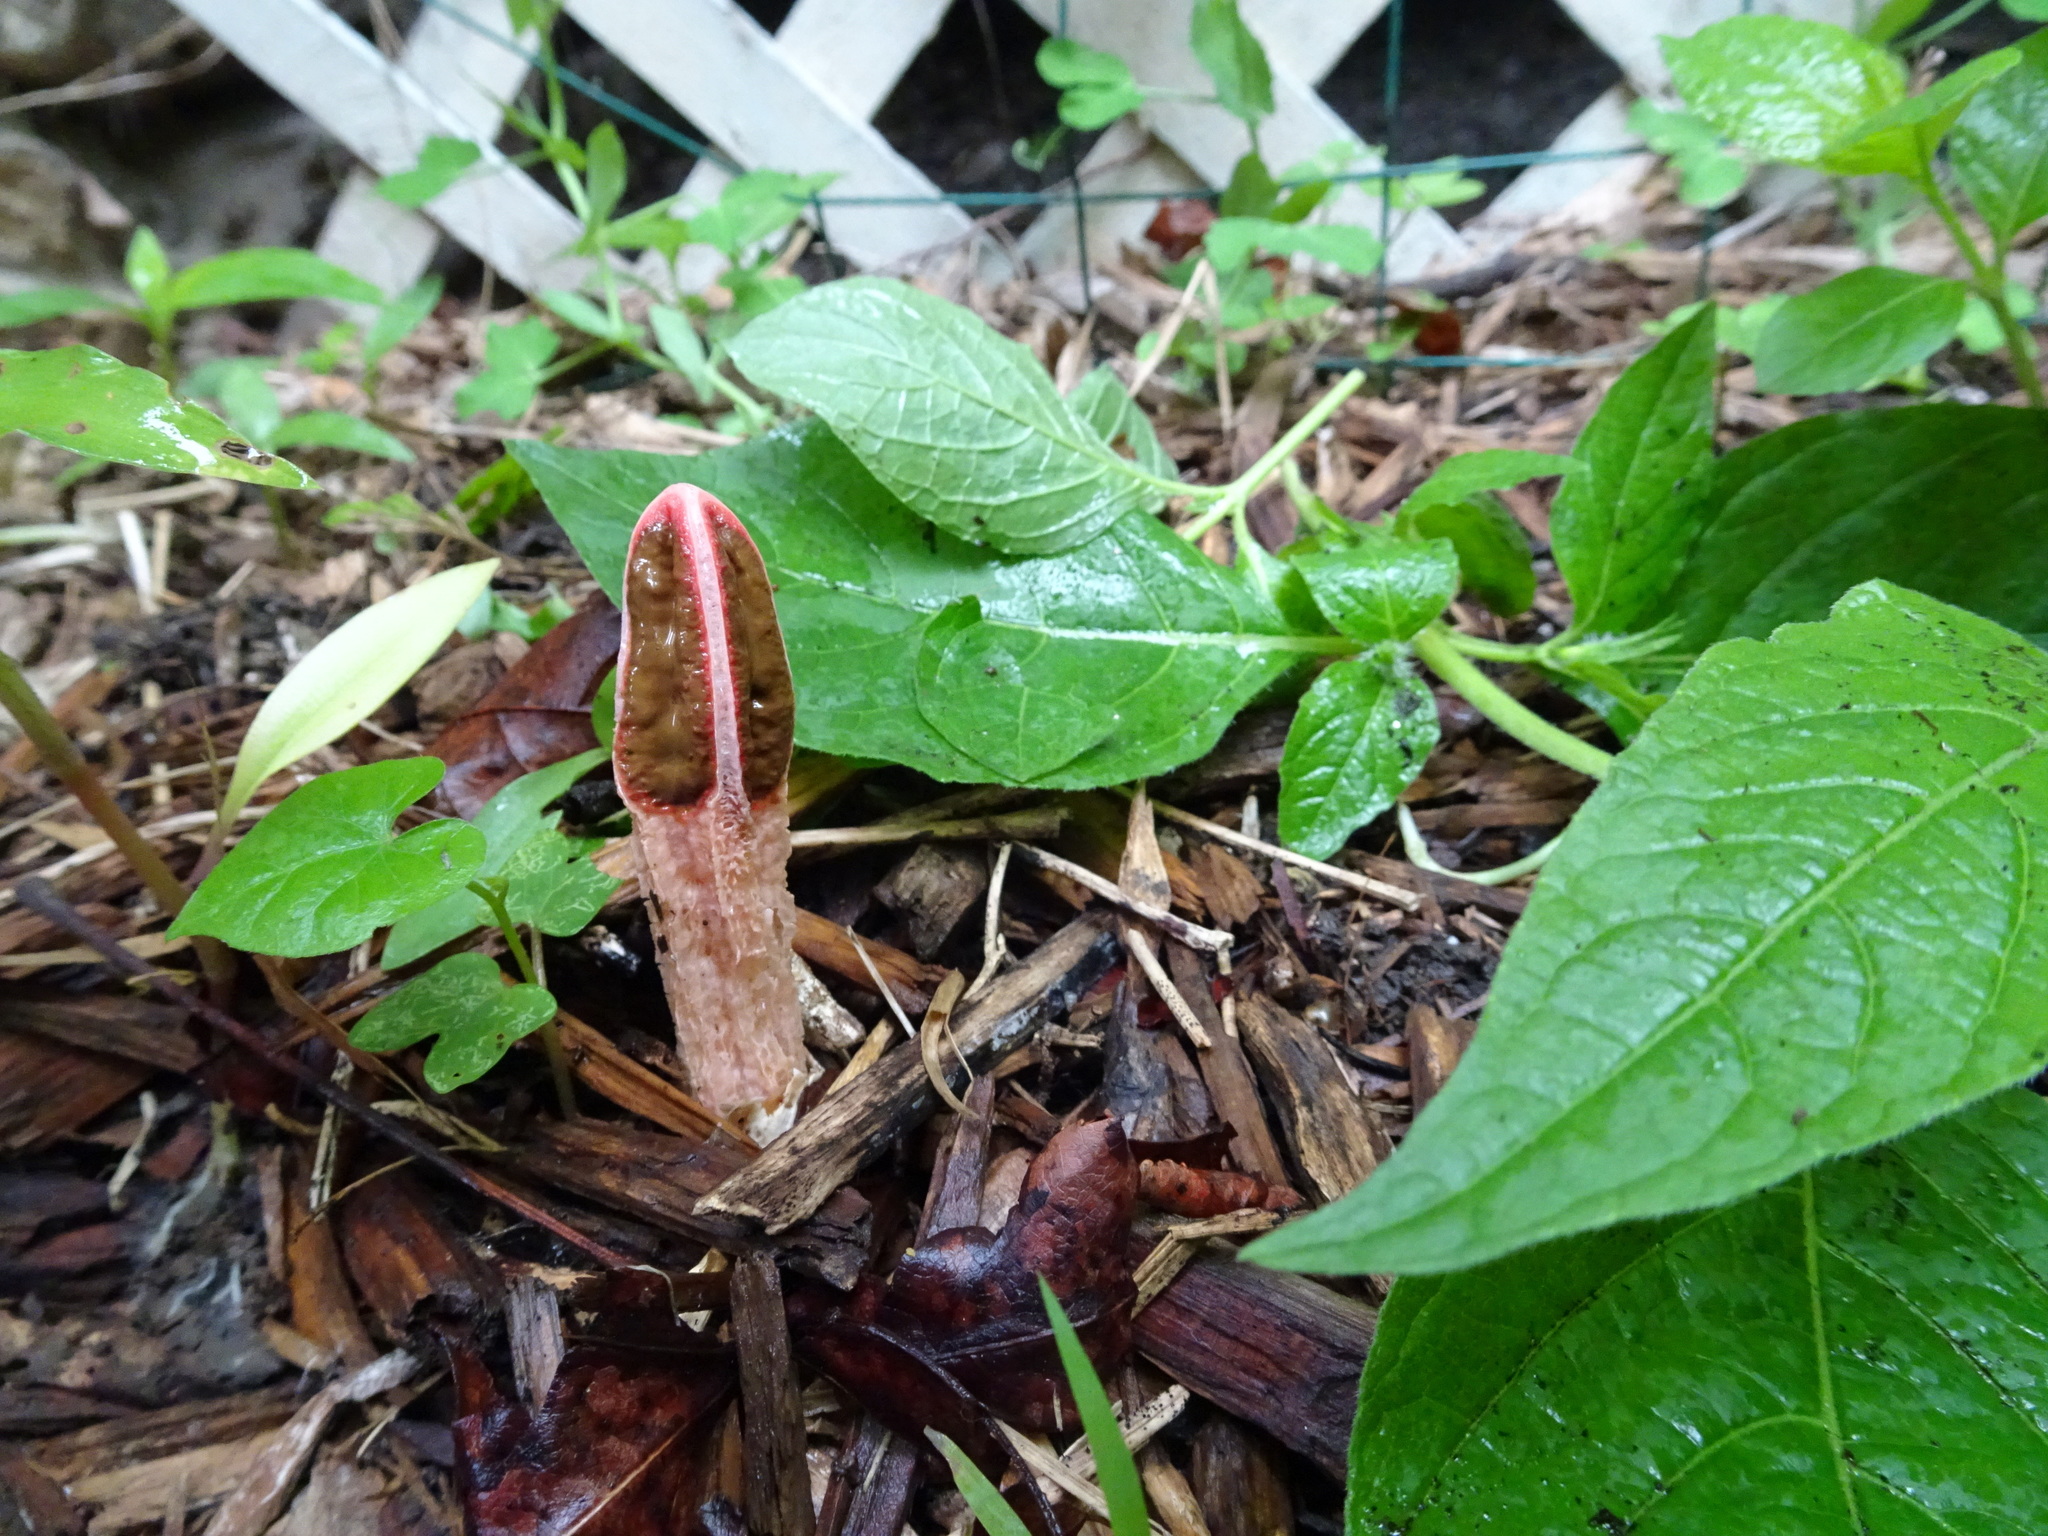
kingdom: Fungi
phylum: Basidiomycota
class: Agaricomycetes
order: Phallales
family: Phallaceae
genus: Lysurus
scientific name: Lysurus mokusin
